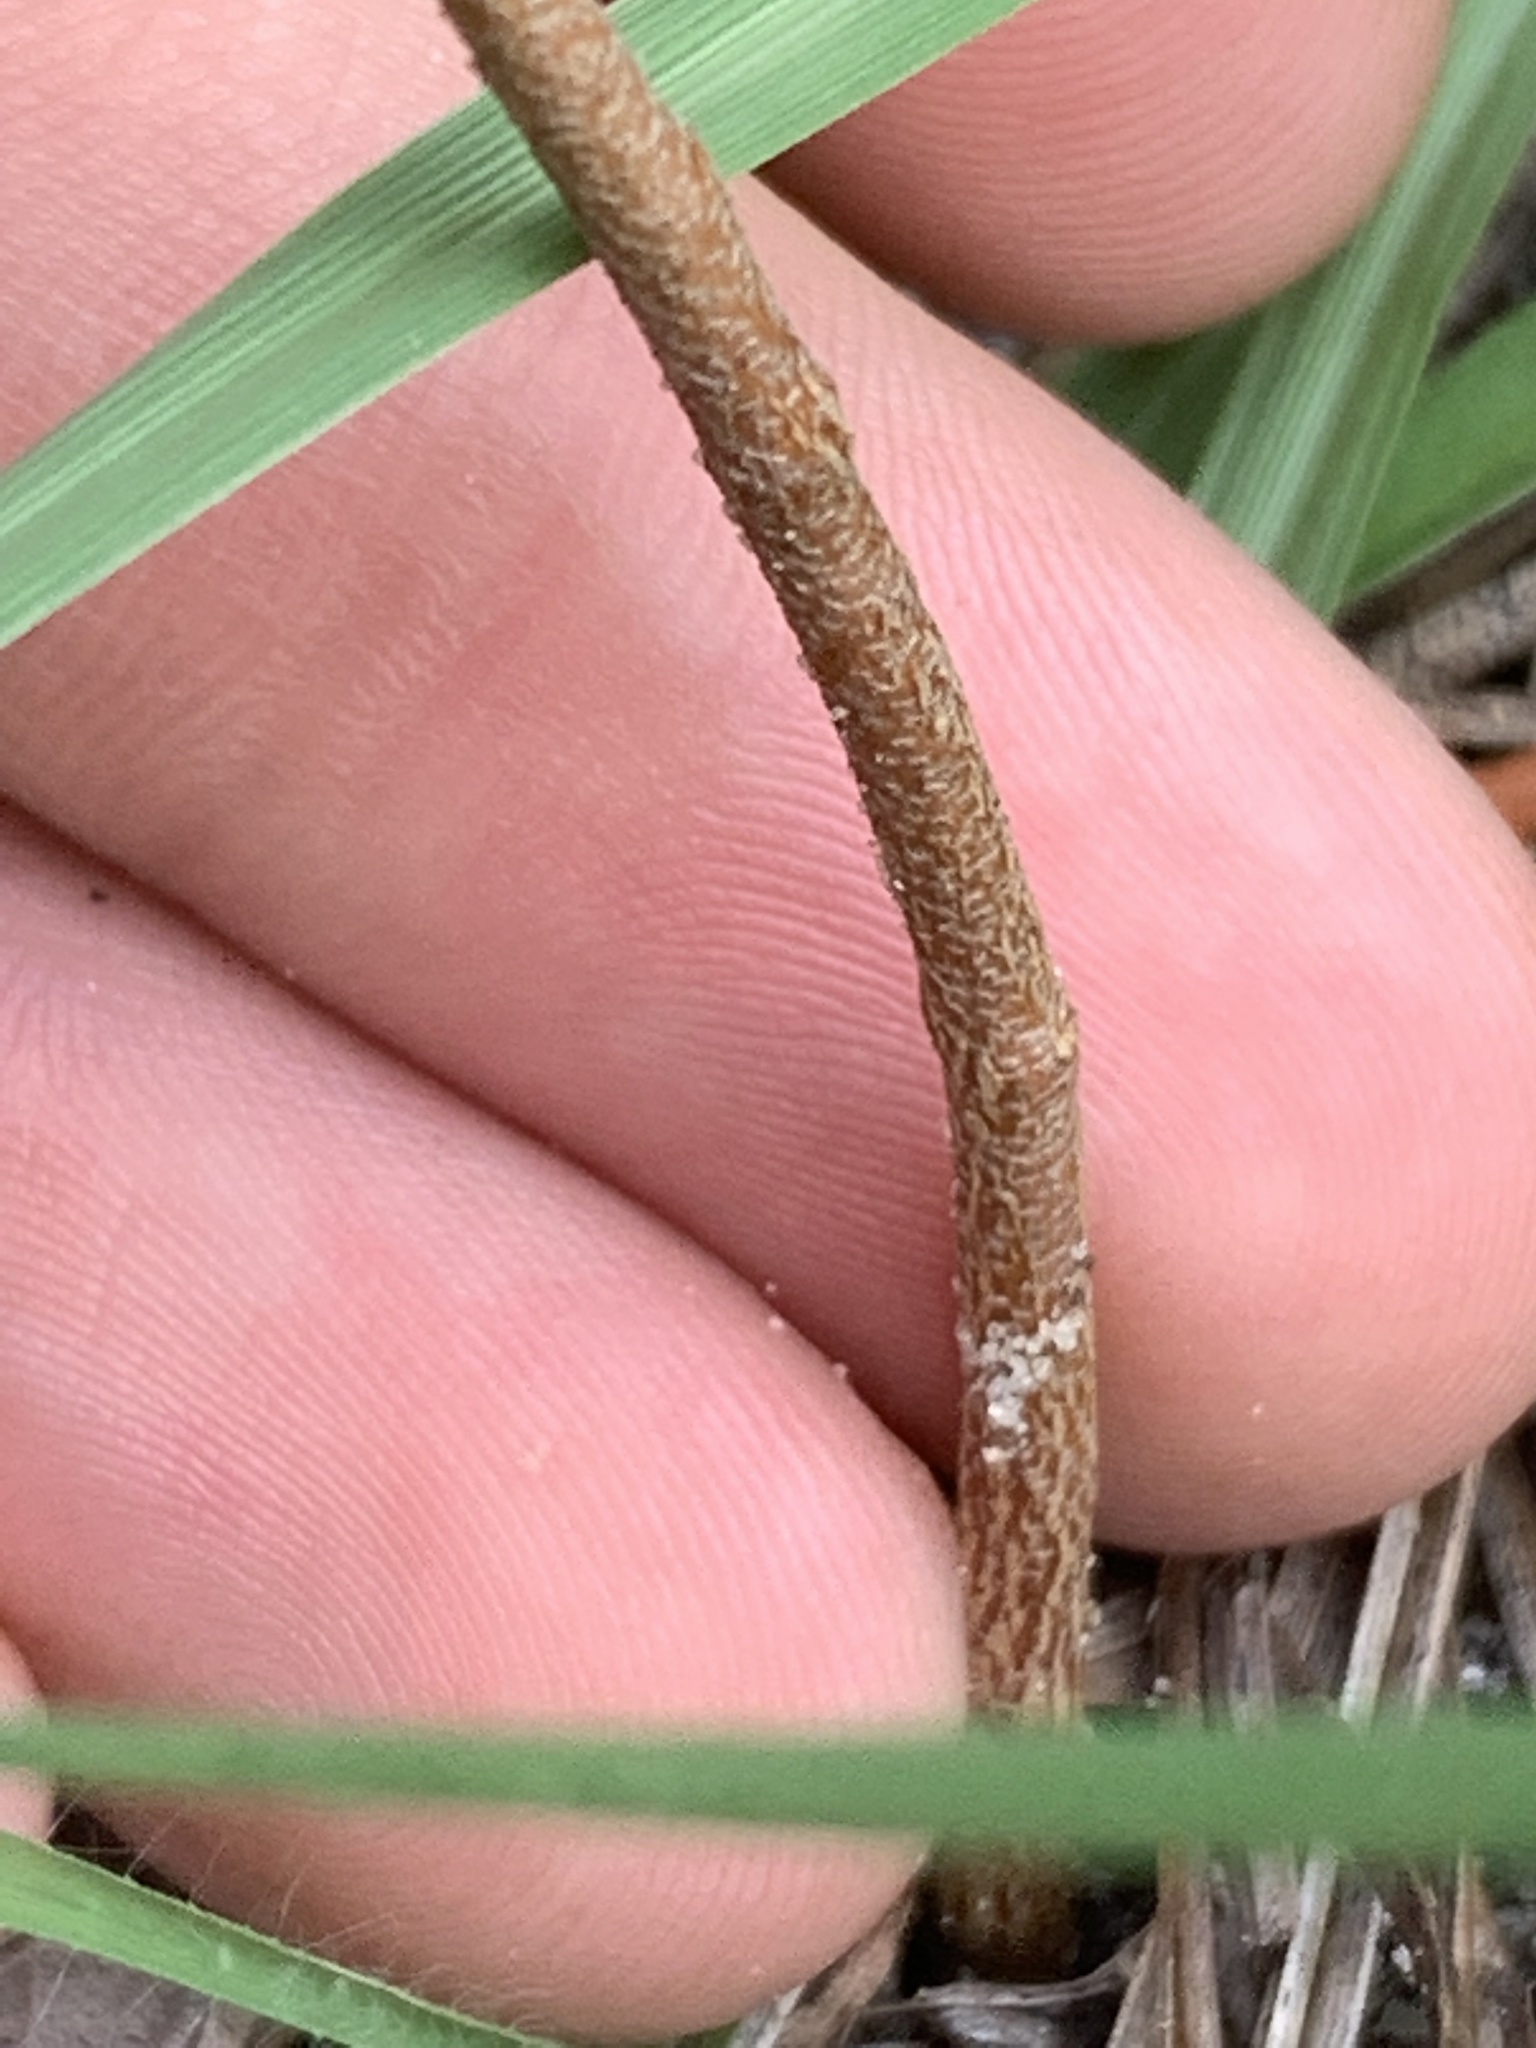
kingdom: Plantae
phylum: Tracheophyta
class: Magnoliopsida
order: Malpighiales
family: Euphorbiaceae
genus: Croton
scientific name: Croton michauxii
